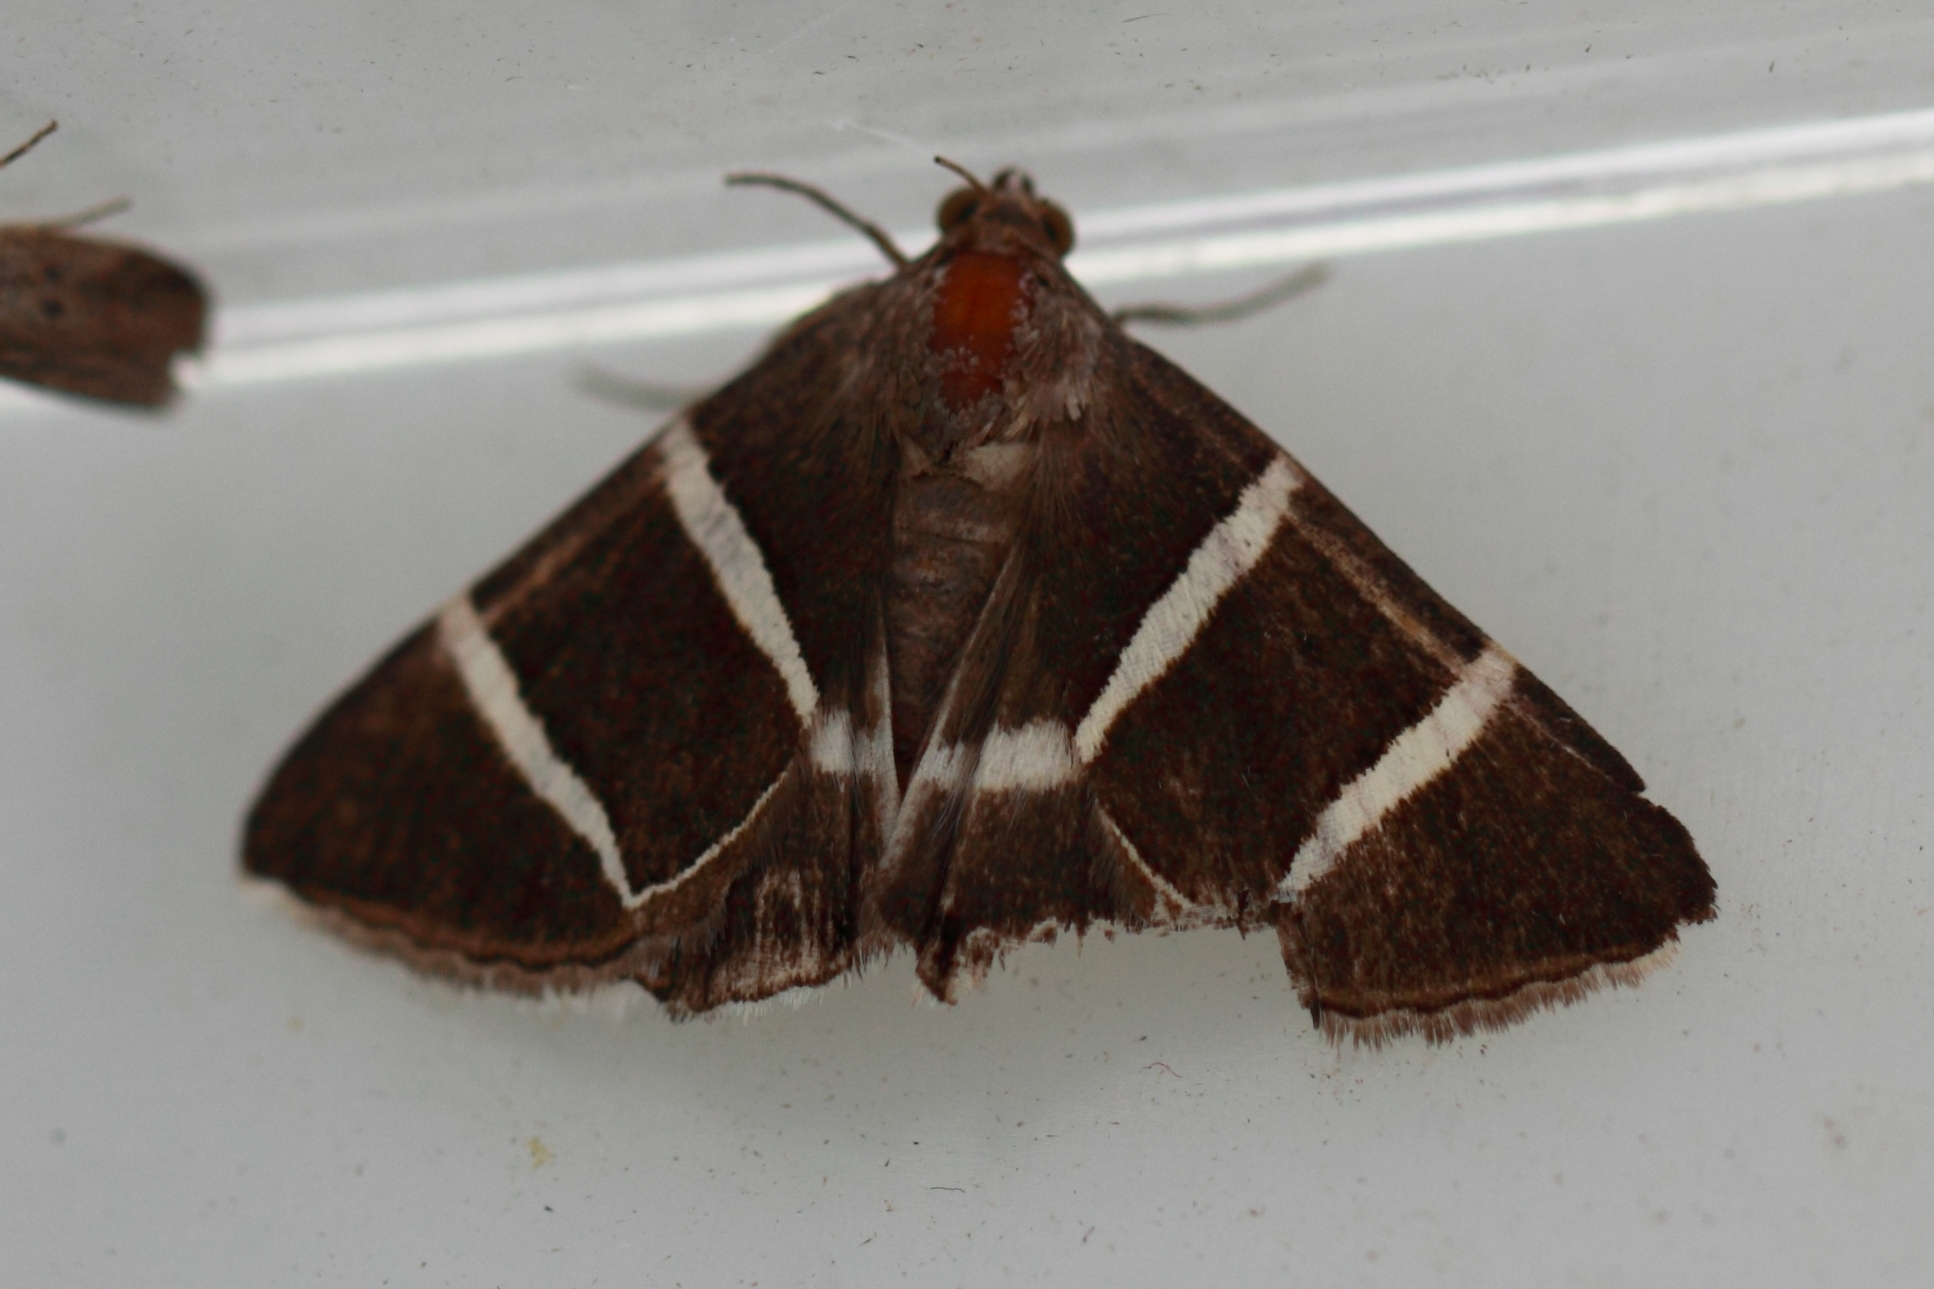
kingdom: Animalia
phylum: Arthropoda
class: Insecta
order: Lepidoptera
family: Erebidae
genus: Grammodes
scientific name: Grammodes justa
